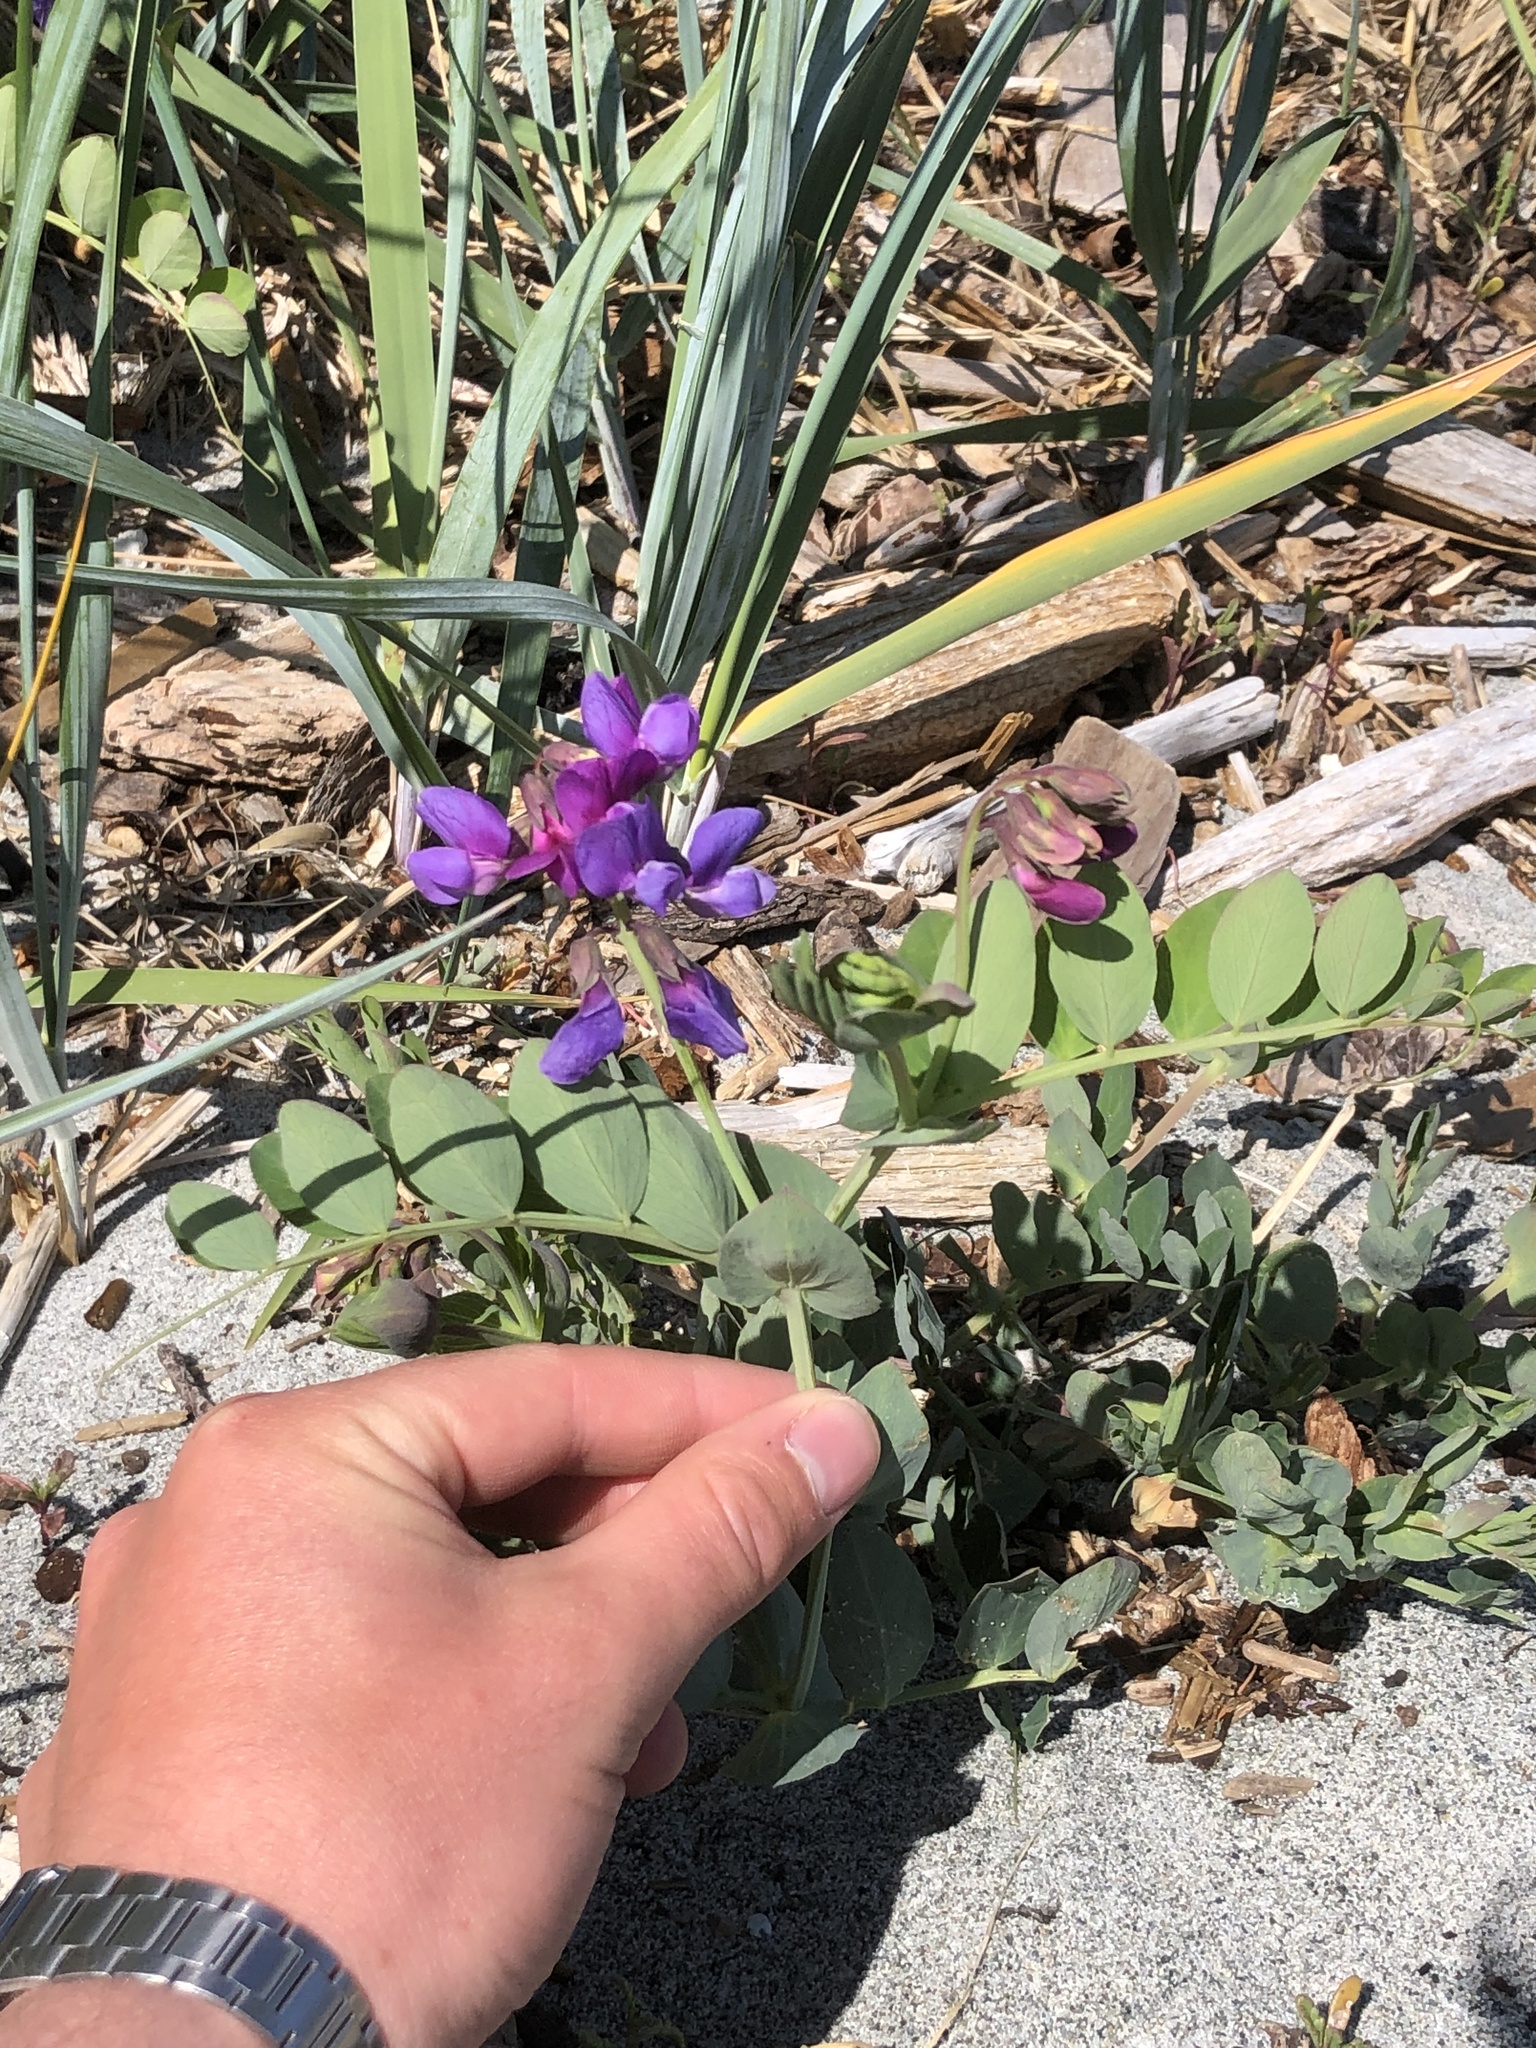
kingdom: Plantae
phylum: Tracheophyta
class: Magnoliopsida
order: Fabales
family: Fabaceae
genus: Lathyrus
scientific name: Lathyrus japonicus
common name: Sea pea
